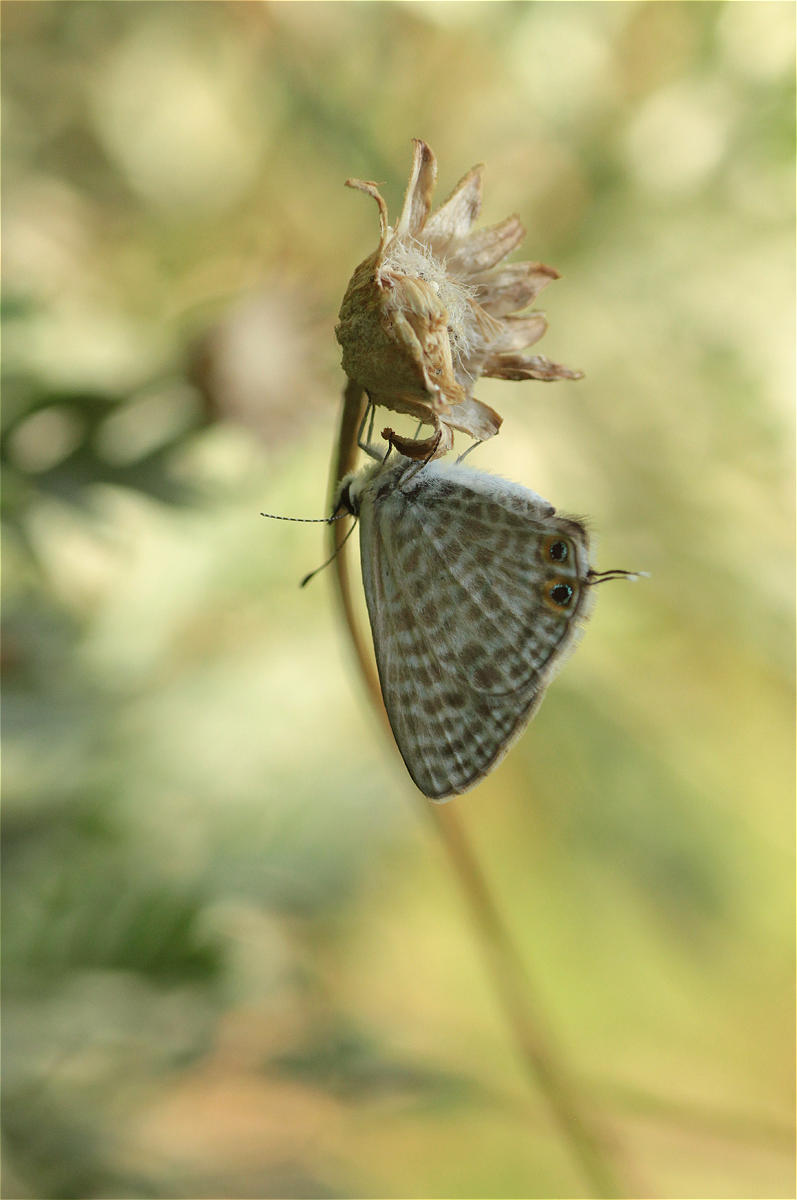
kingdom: Animalia
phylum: Arthropoda
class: Insecta
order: Lepidoptera
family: Lycaenidae
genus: Leptotes
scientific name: Leptotes pirithous
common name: Lang's short-tailed blue
